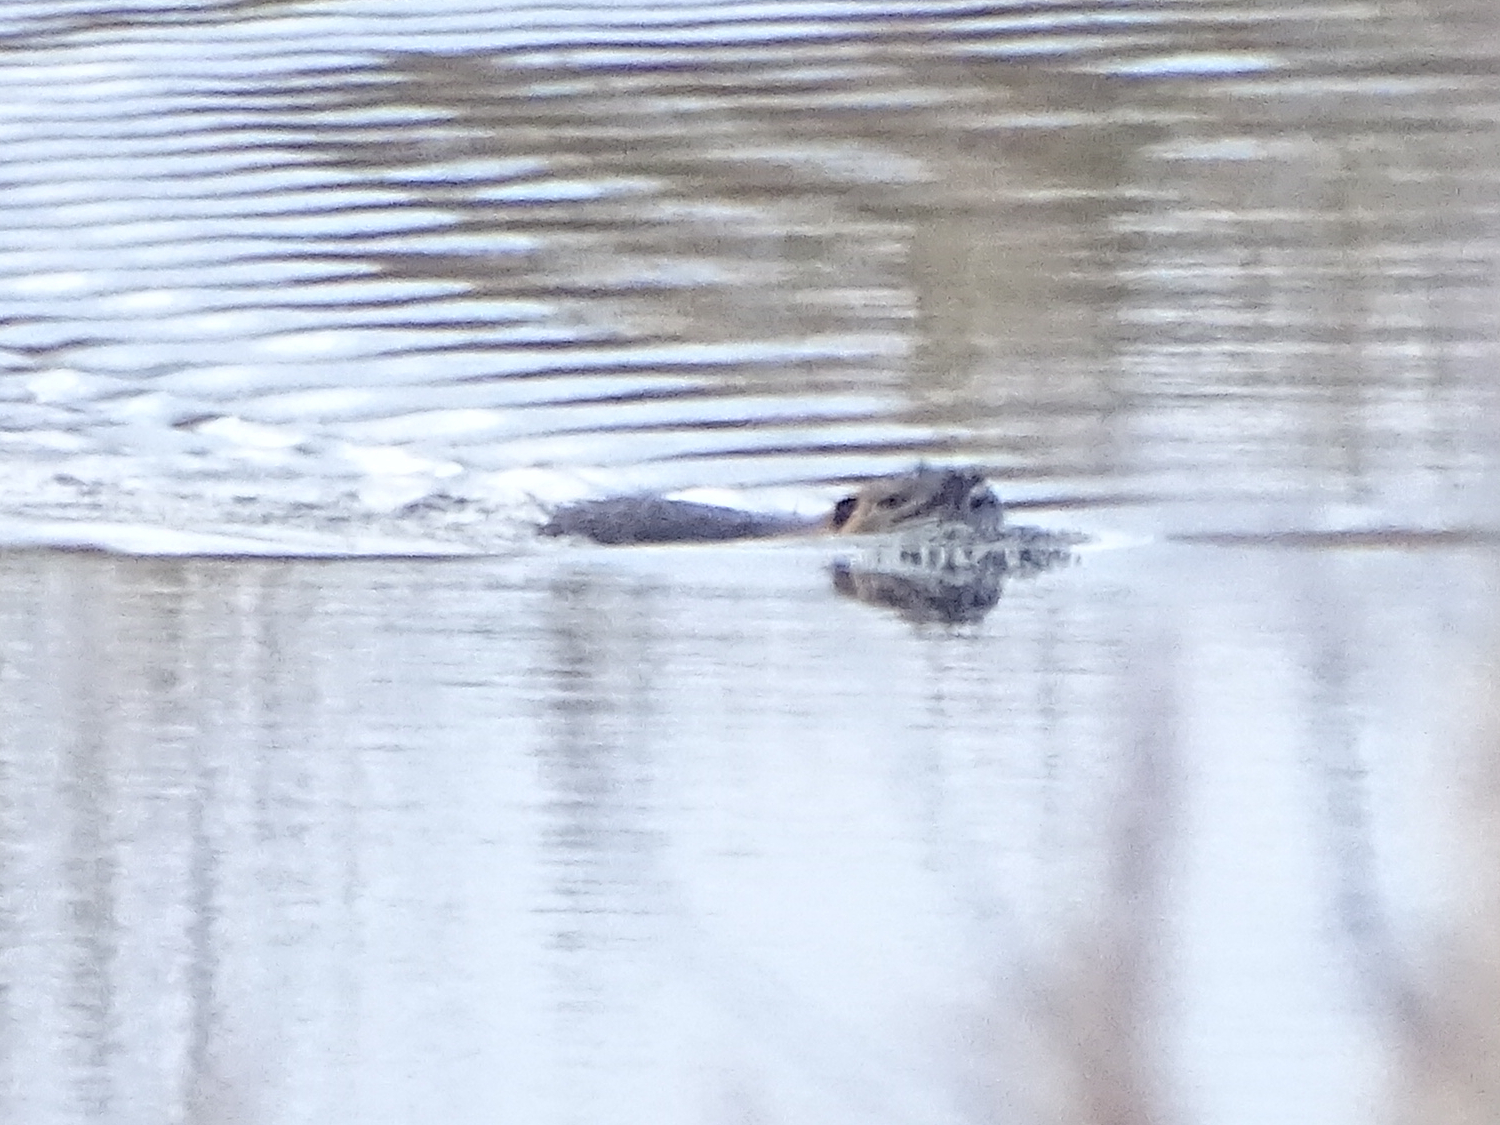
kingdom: Animalia
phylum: Chordata
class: Mammalia
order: Rodentia
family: Myocastoridae
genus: Myocastor
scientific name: Myocastor coypus
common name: Coypu
